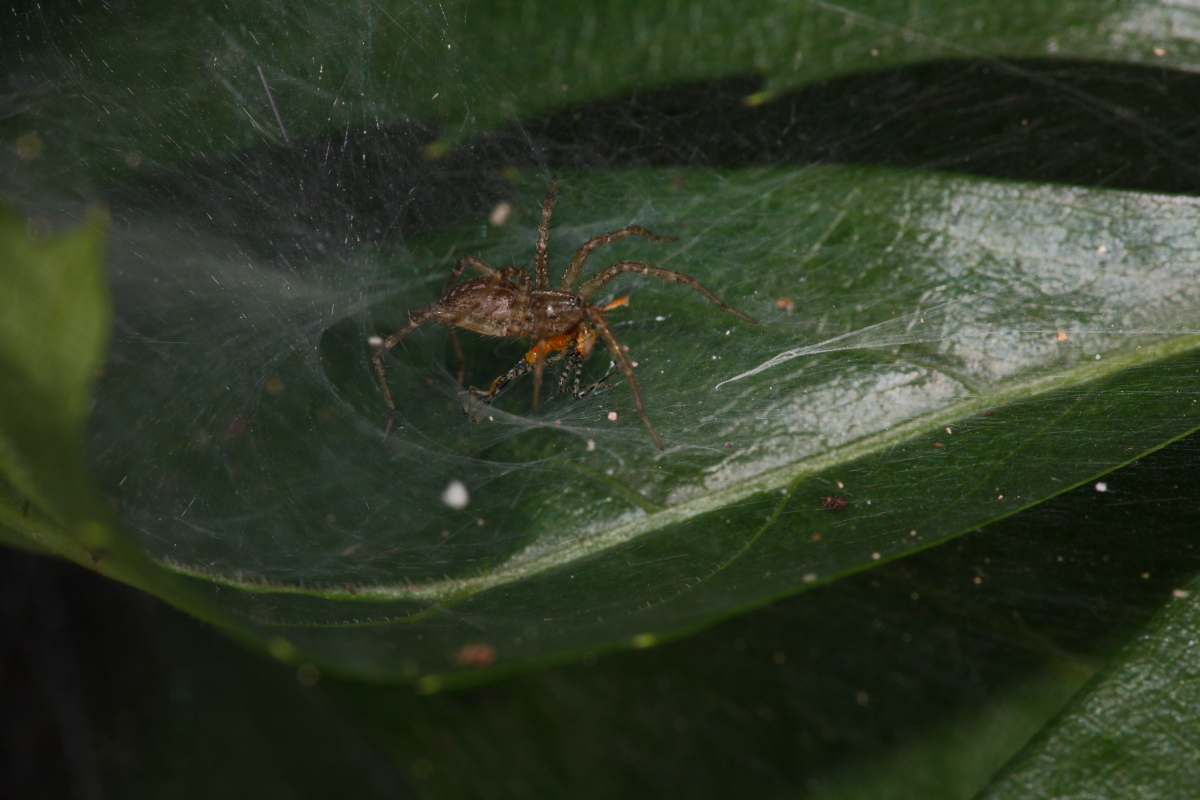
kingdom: Animalia
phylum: Arthropoda
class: Arachnida
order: Araneae
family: Agelenidae
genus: Agelenopsis
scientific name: Agelenopsis
